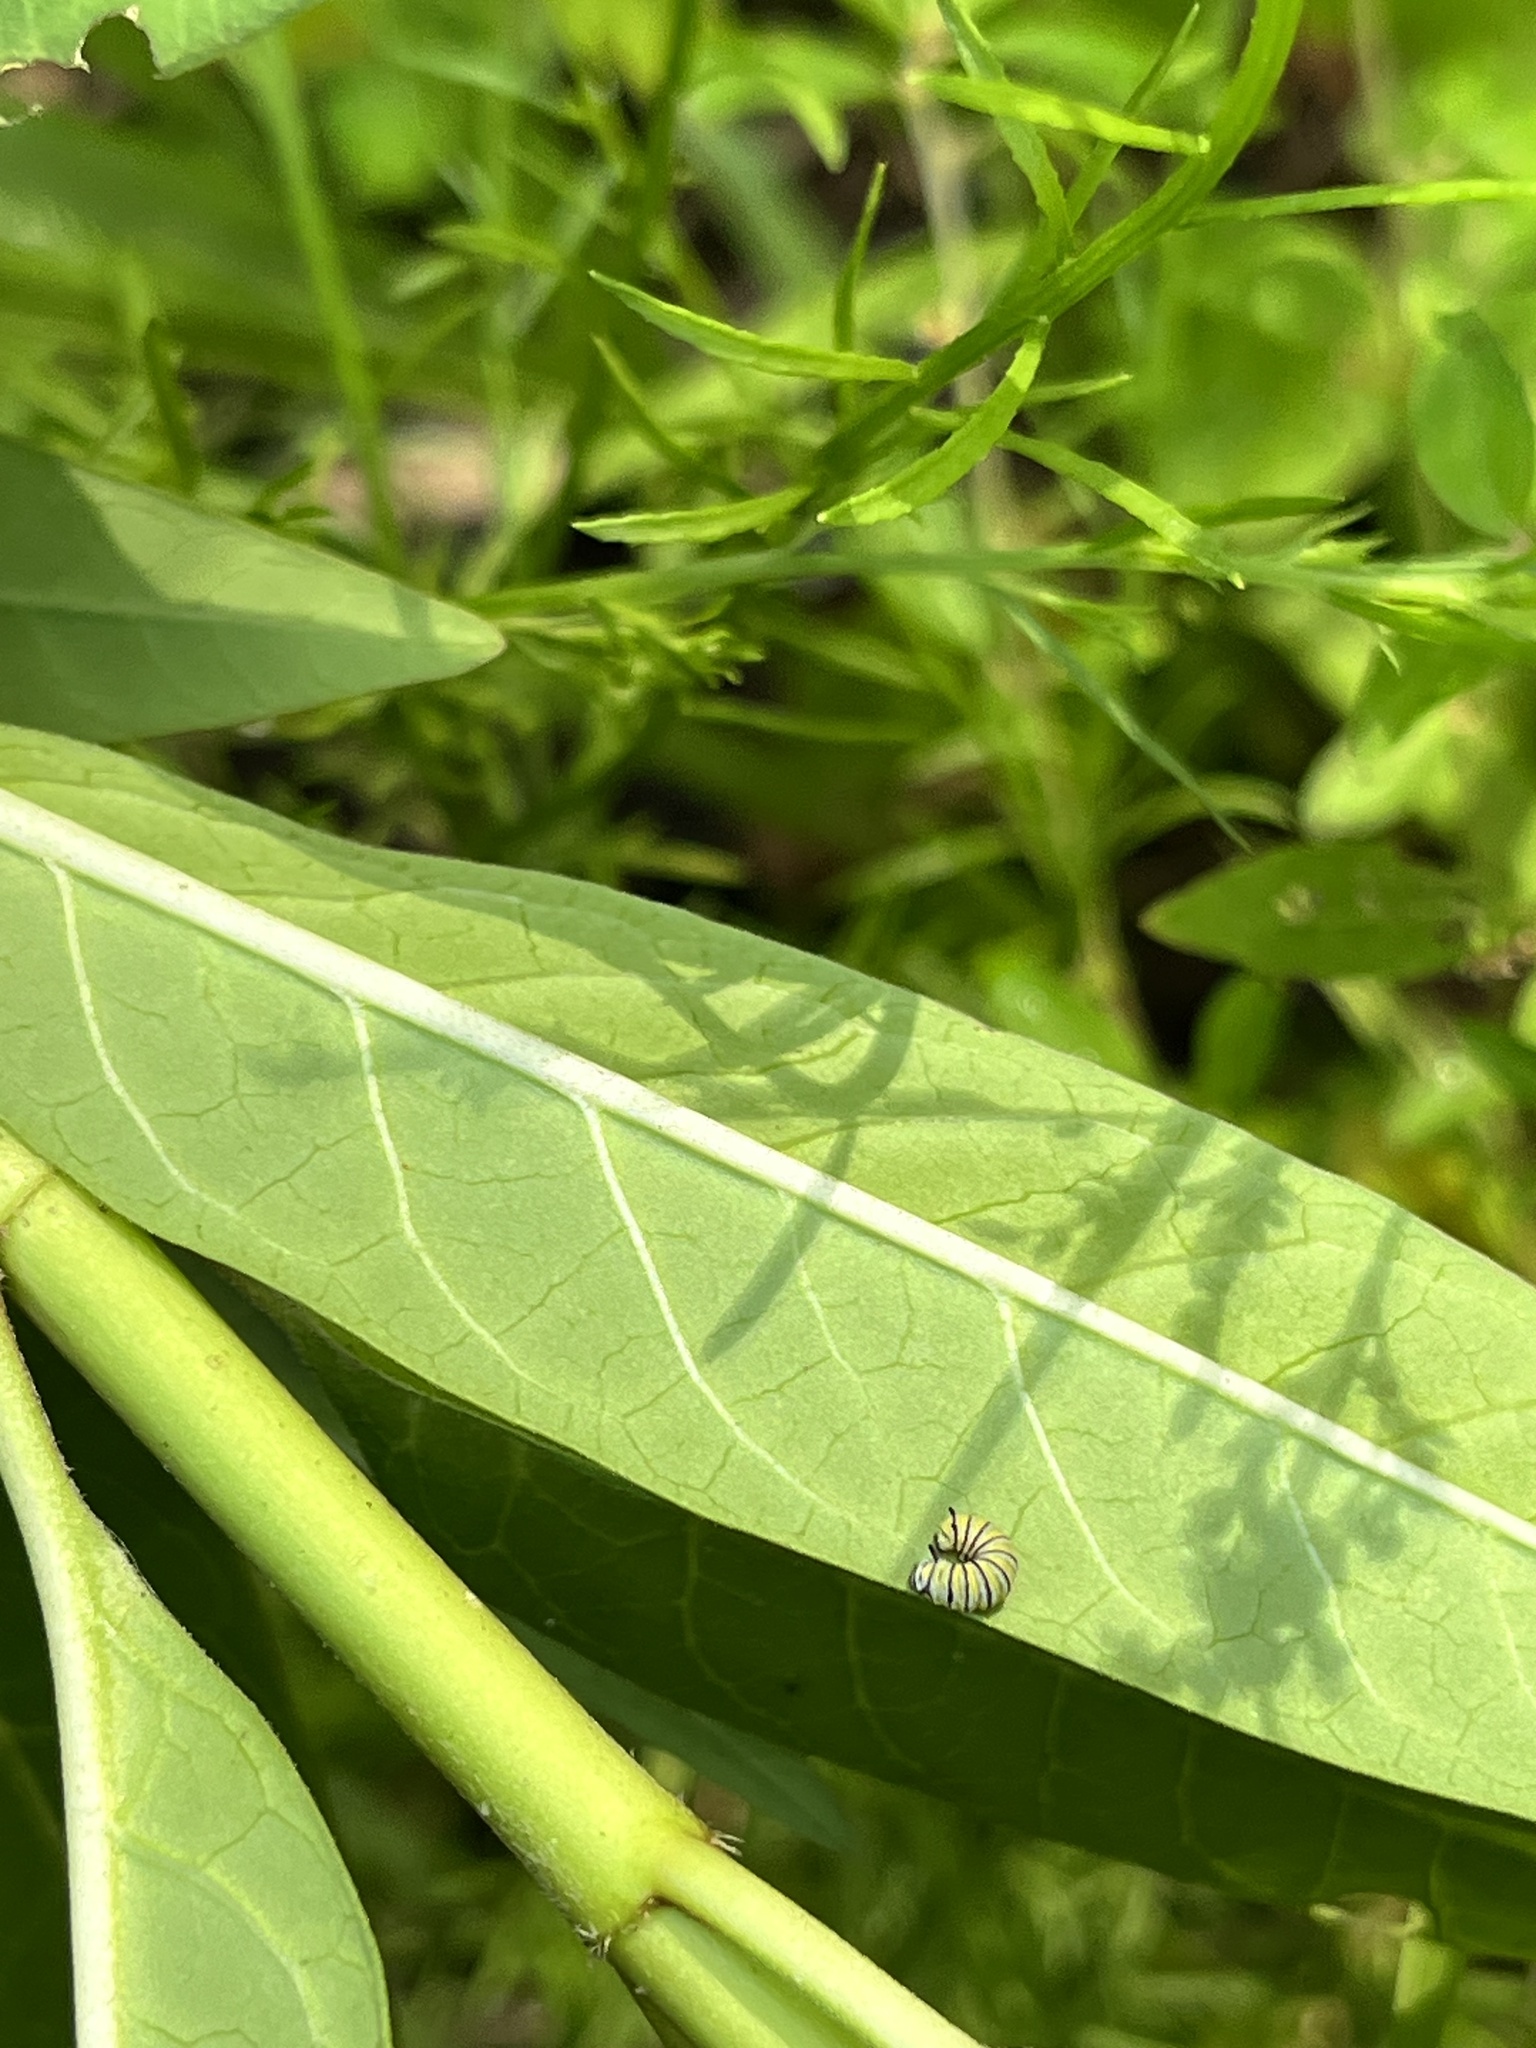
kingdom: Animalia
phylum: Arthropoda
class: Insecta
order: Lepidoptera
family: Nymphalidae
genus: Danaus
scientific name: Danaus plexippus
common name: Monarch
